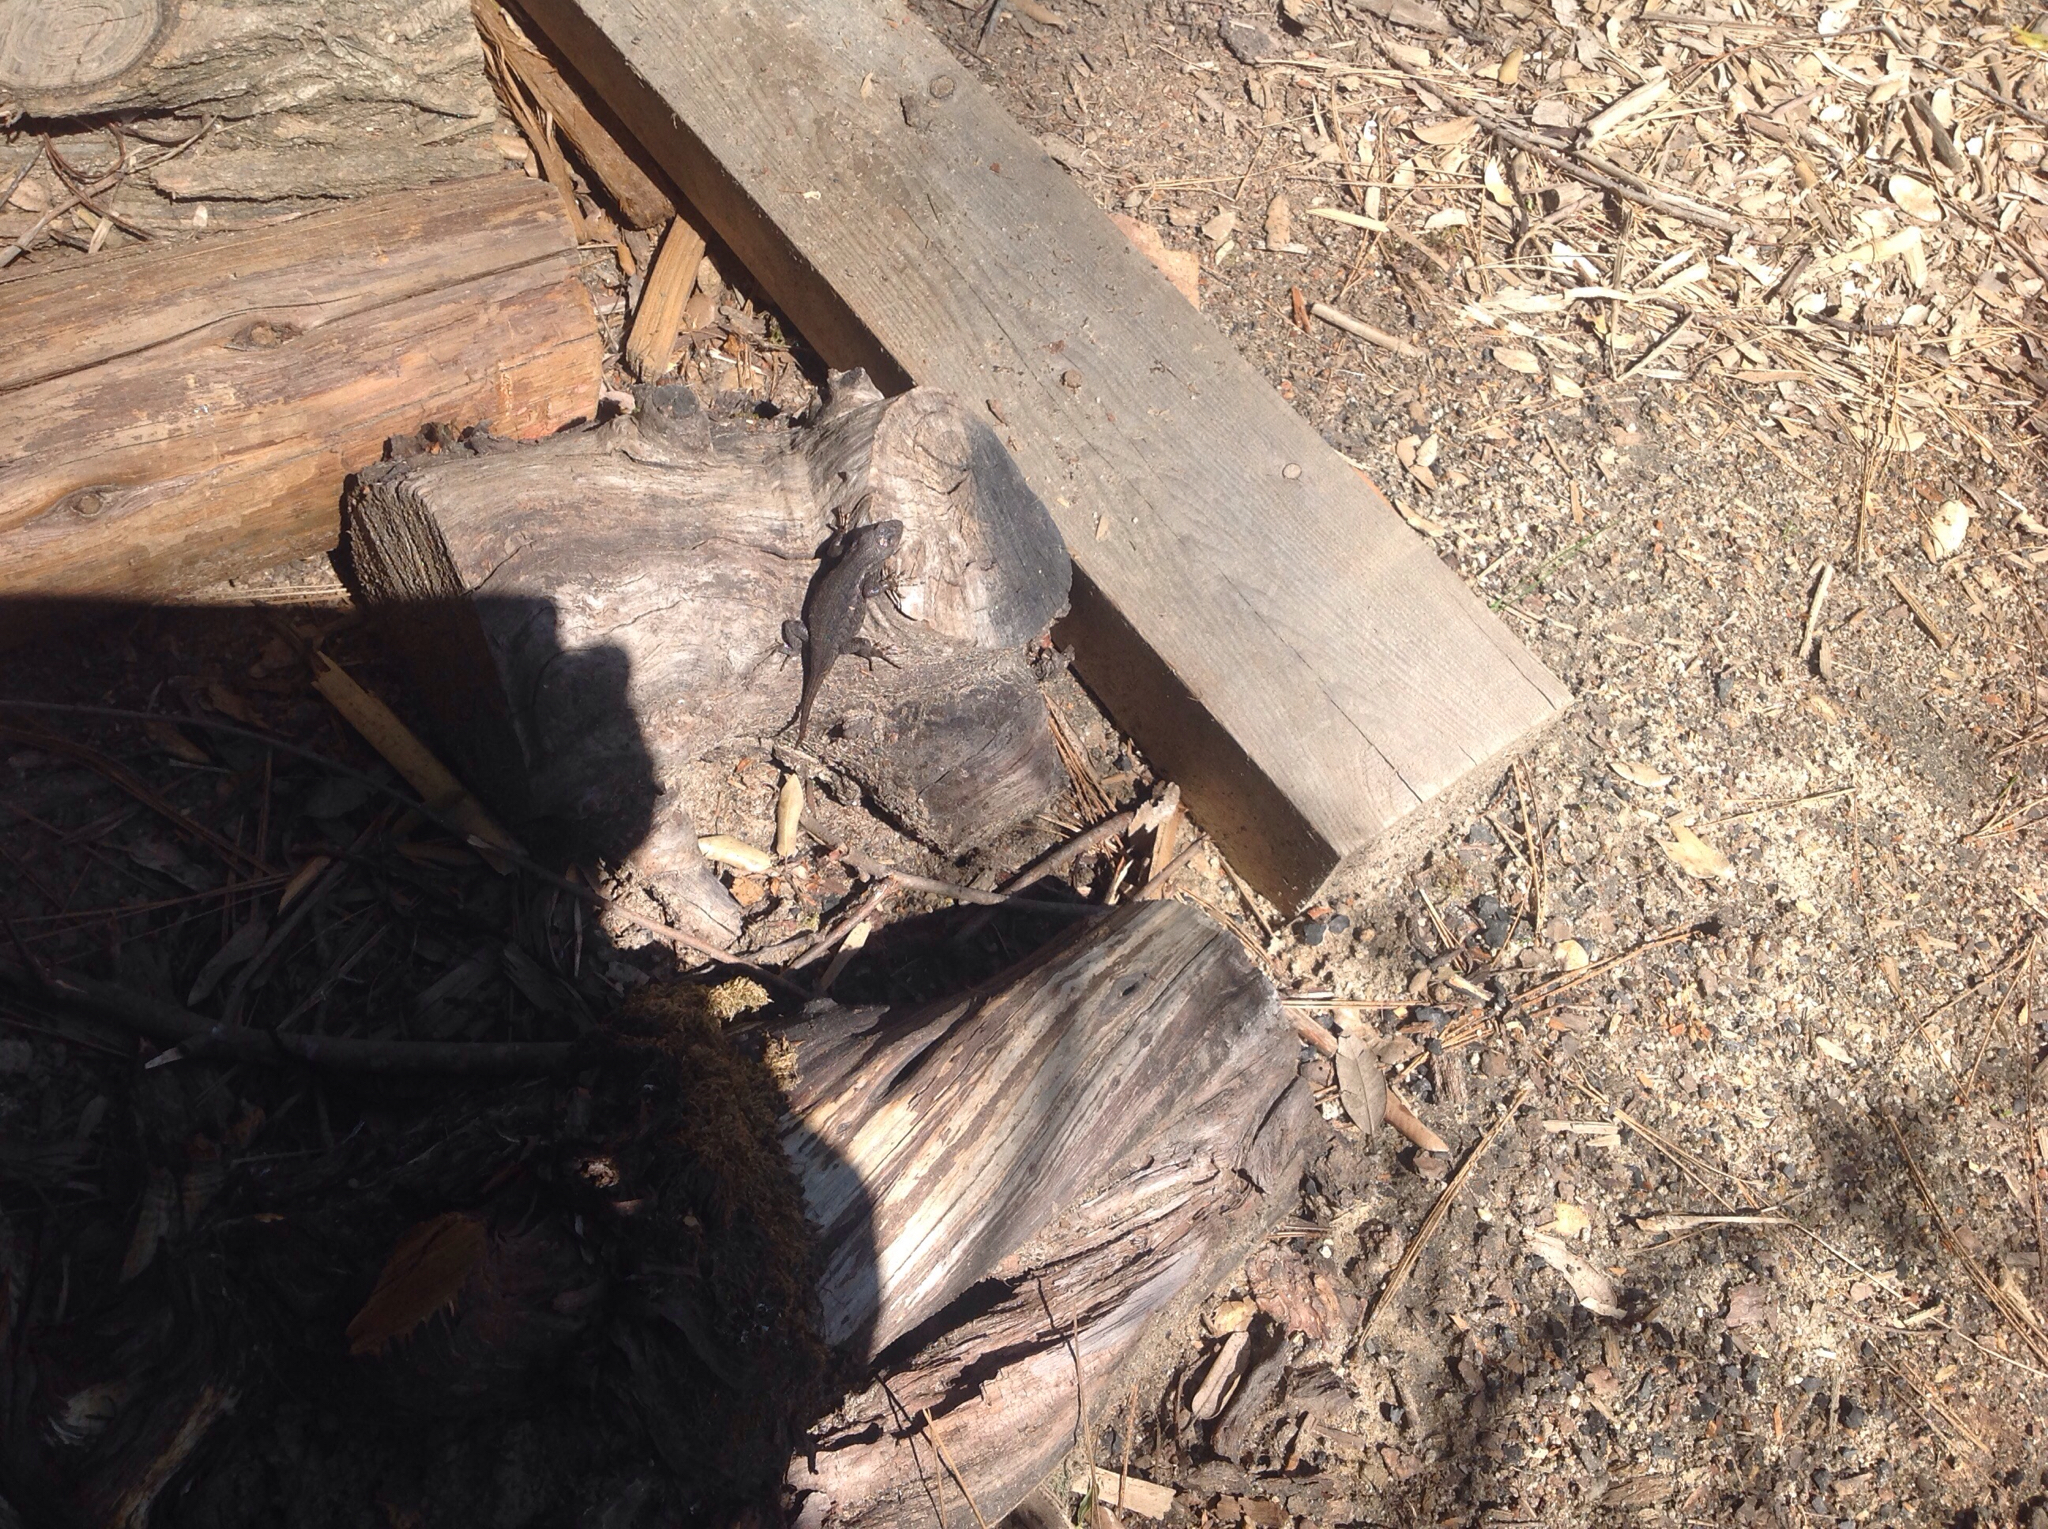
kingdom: Animalia
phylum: Chordata
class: Squamata
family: Phrynosomatidae
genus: Sceloporus
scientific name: Sceloporus occidentalis
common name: Western fence lizard
